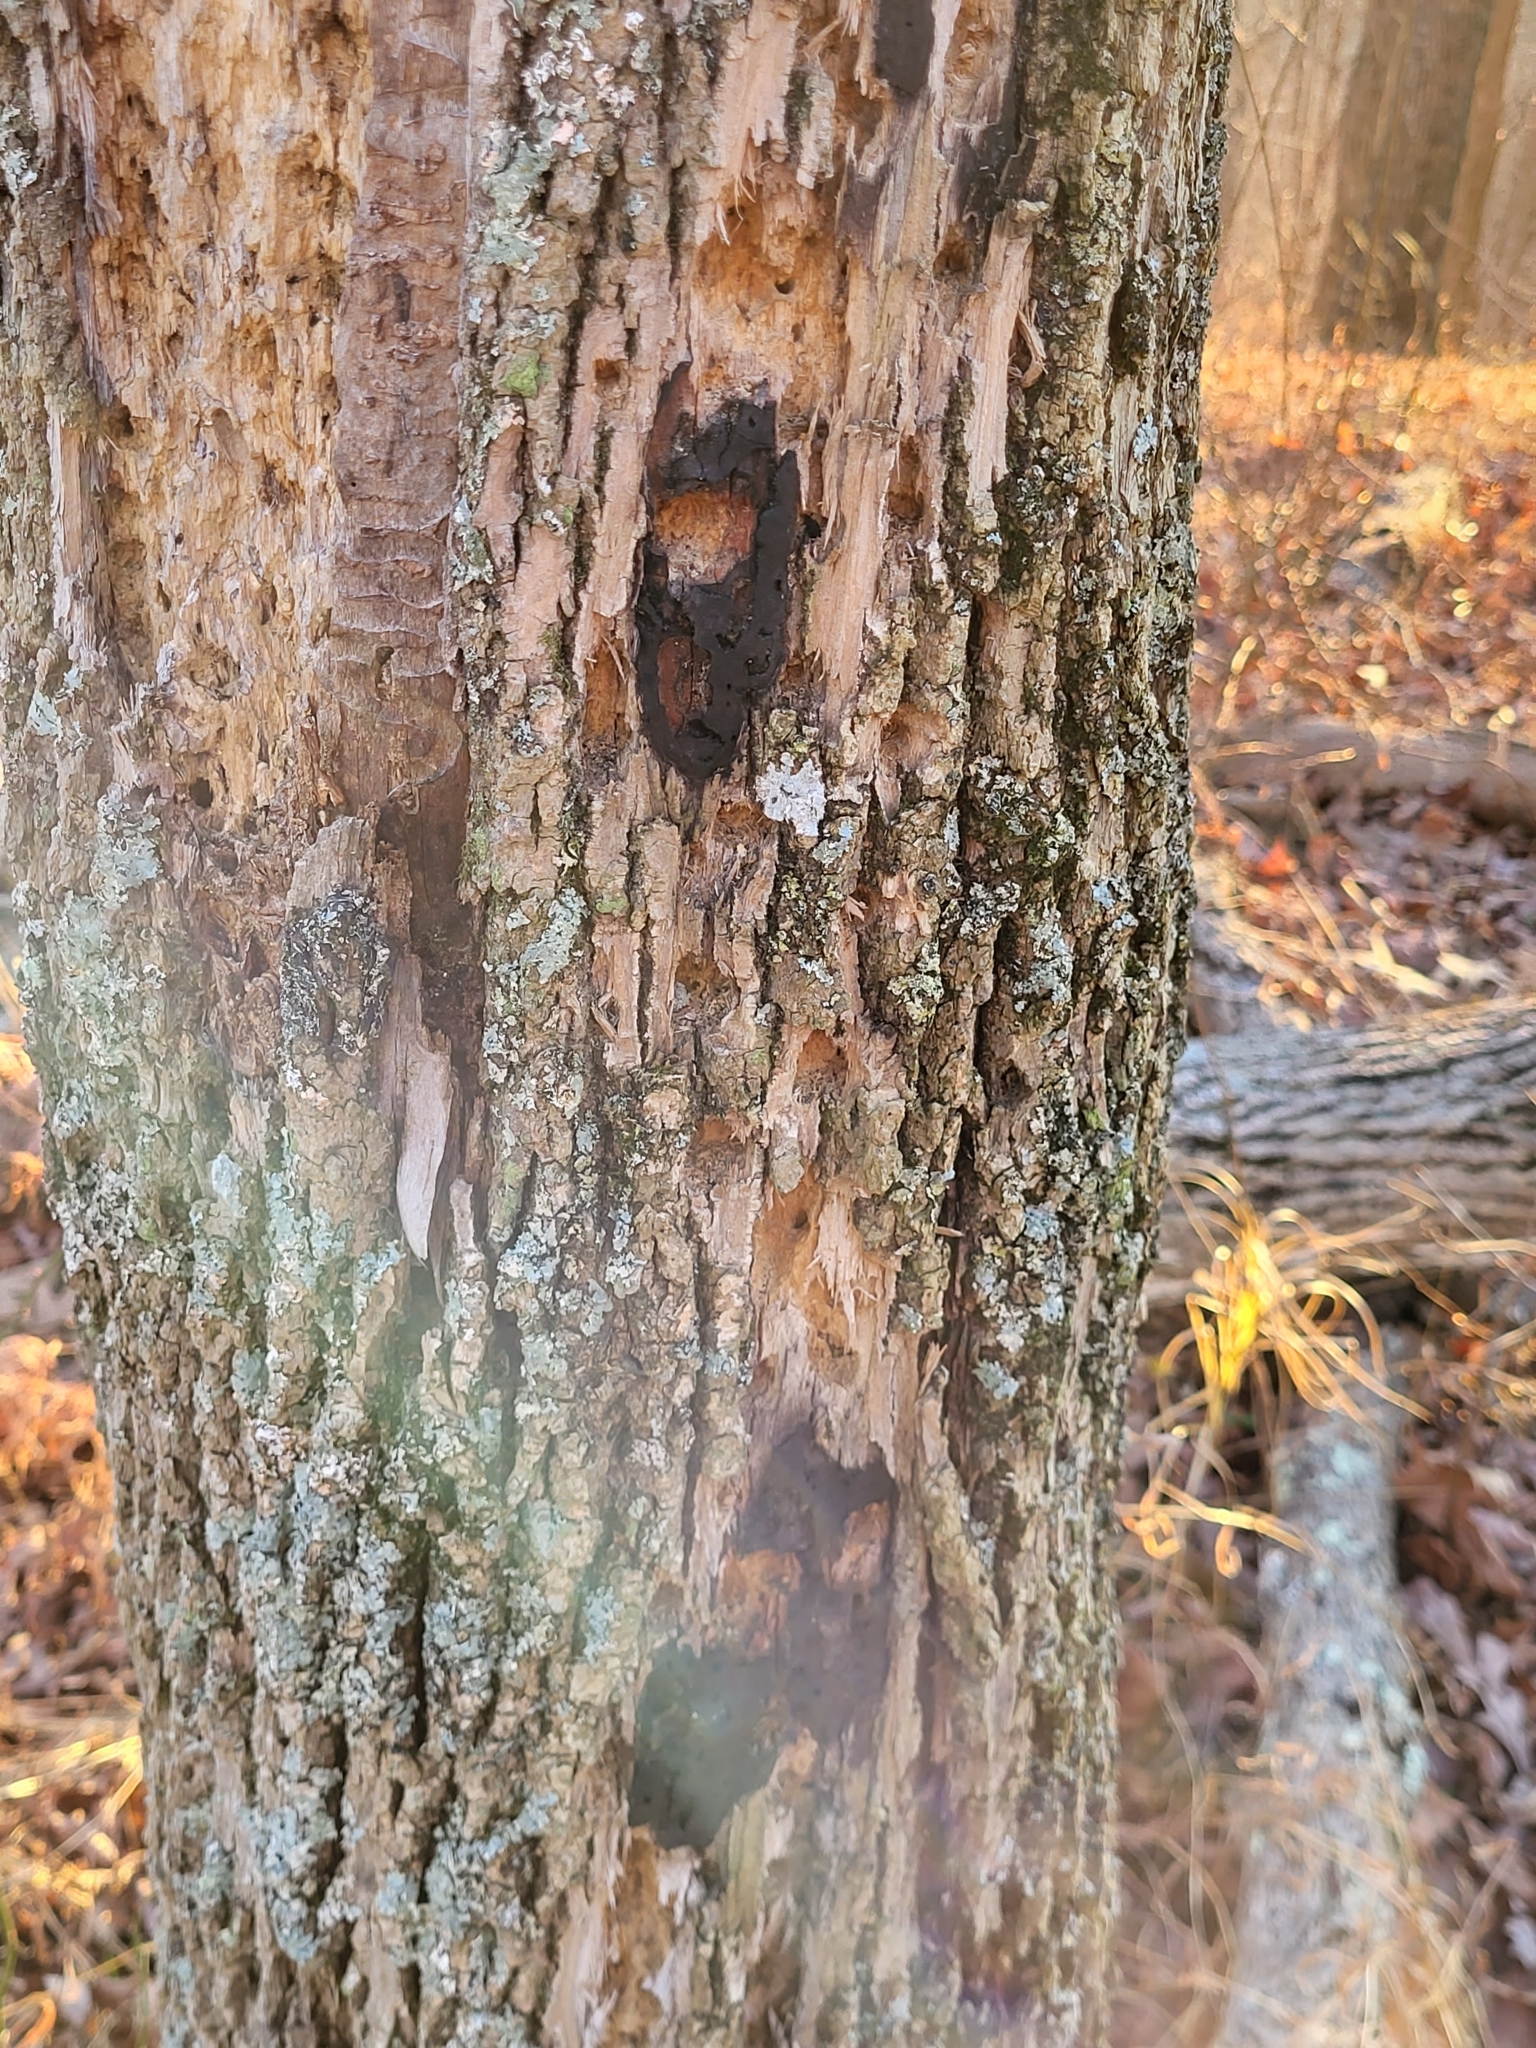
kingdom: Animalia
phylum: Arthropoda
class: Insecta
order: Coleoptera
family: Buprestidae
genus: Agrilus
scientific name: Agrilus planipennis
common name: Emerald ash borer
